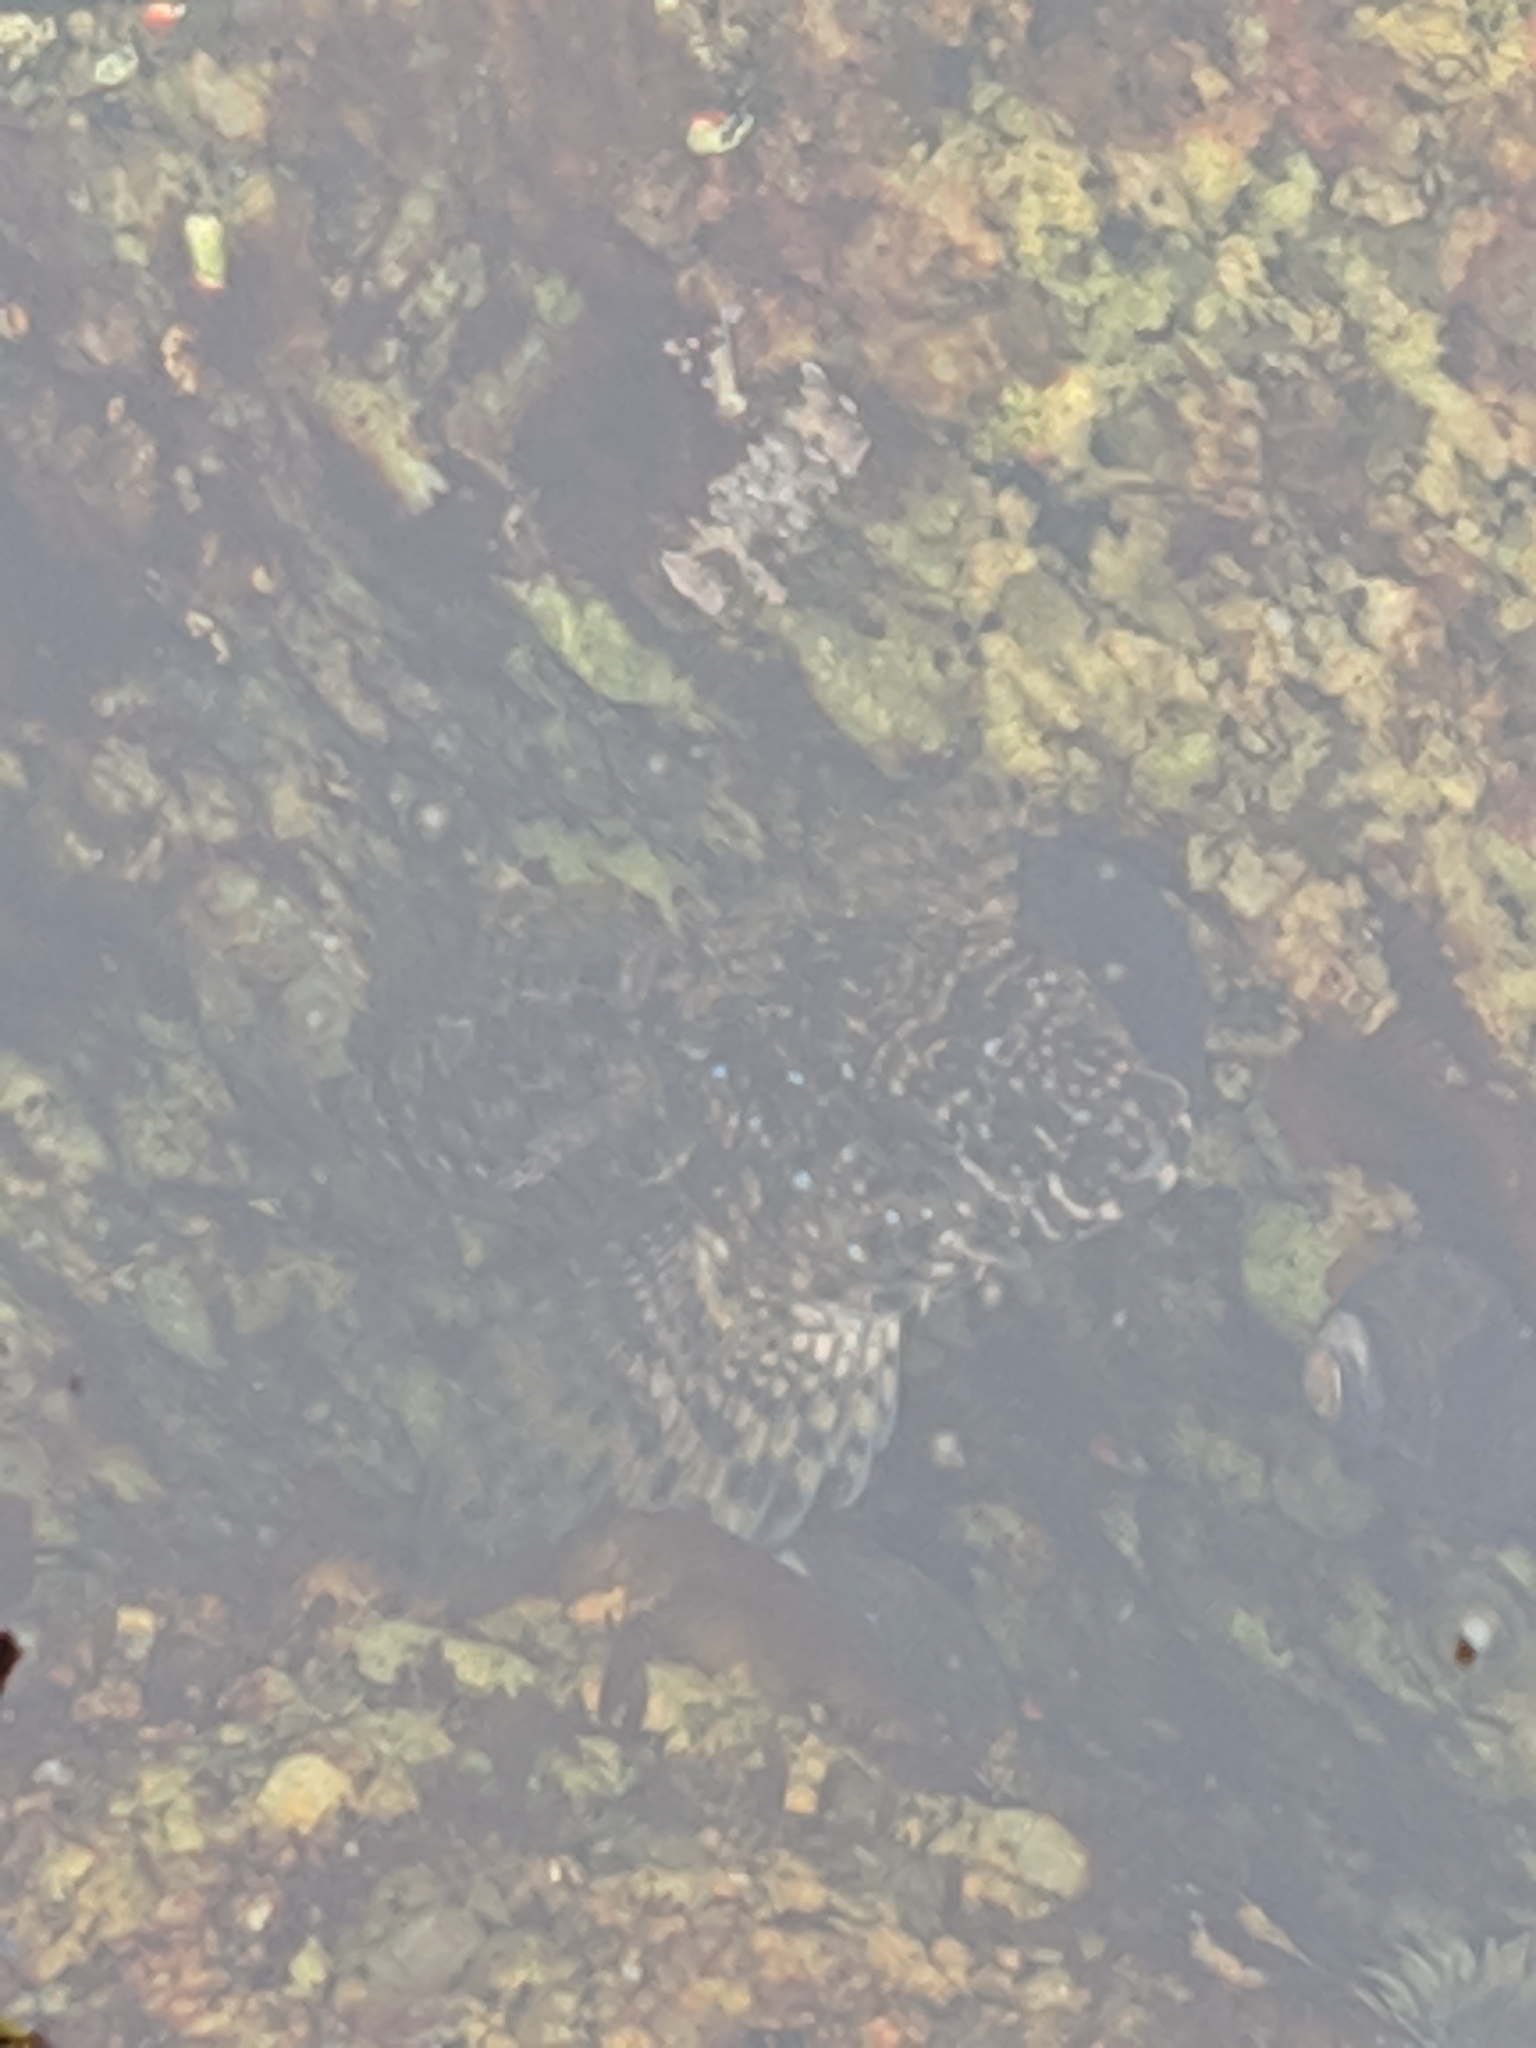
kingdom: Animalia
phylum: Chordata
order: Scorpaeniformes
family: Cottidae
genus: Clinocottus
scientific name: Clinocottus analis
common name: Woolly sculpin
